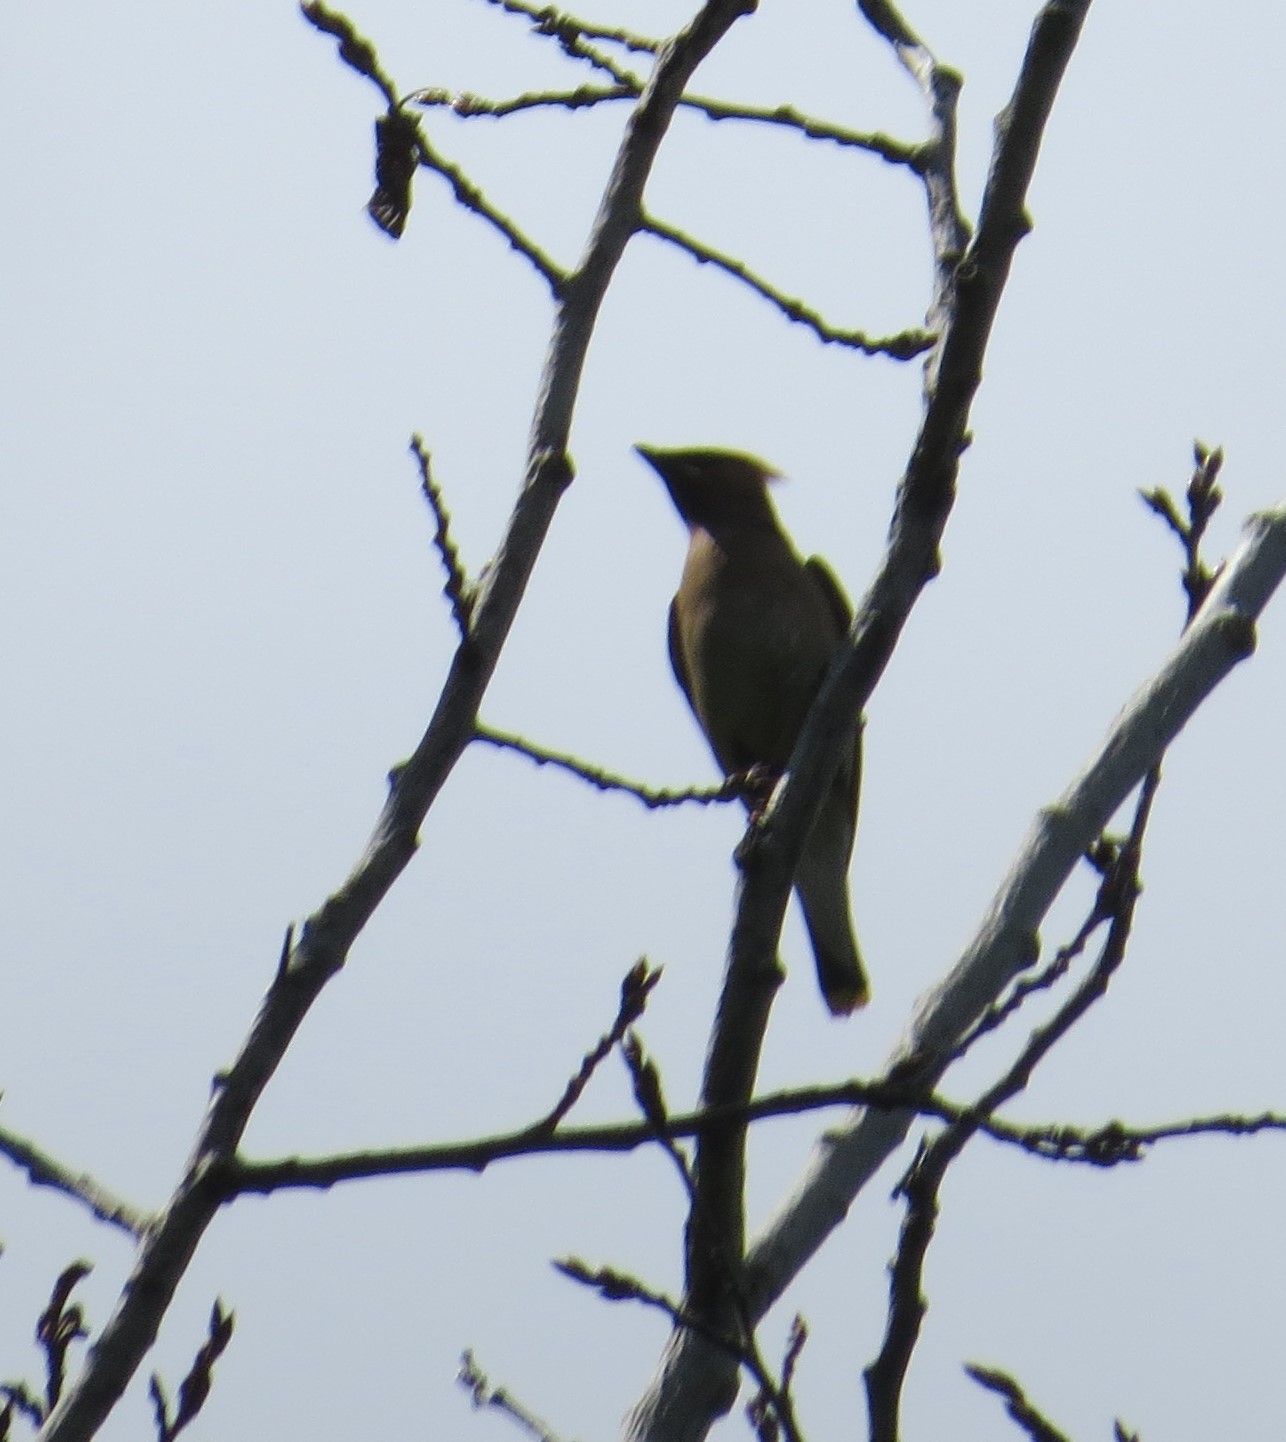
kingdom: Animalia
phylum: Chordata
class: Aves
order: Passeriformes
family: Bombycillidae
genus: Bombycilla
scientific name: Bombycilla cedrorum
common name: Cedar waxwing
